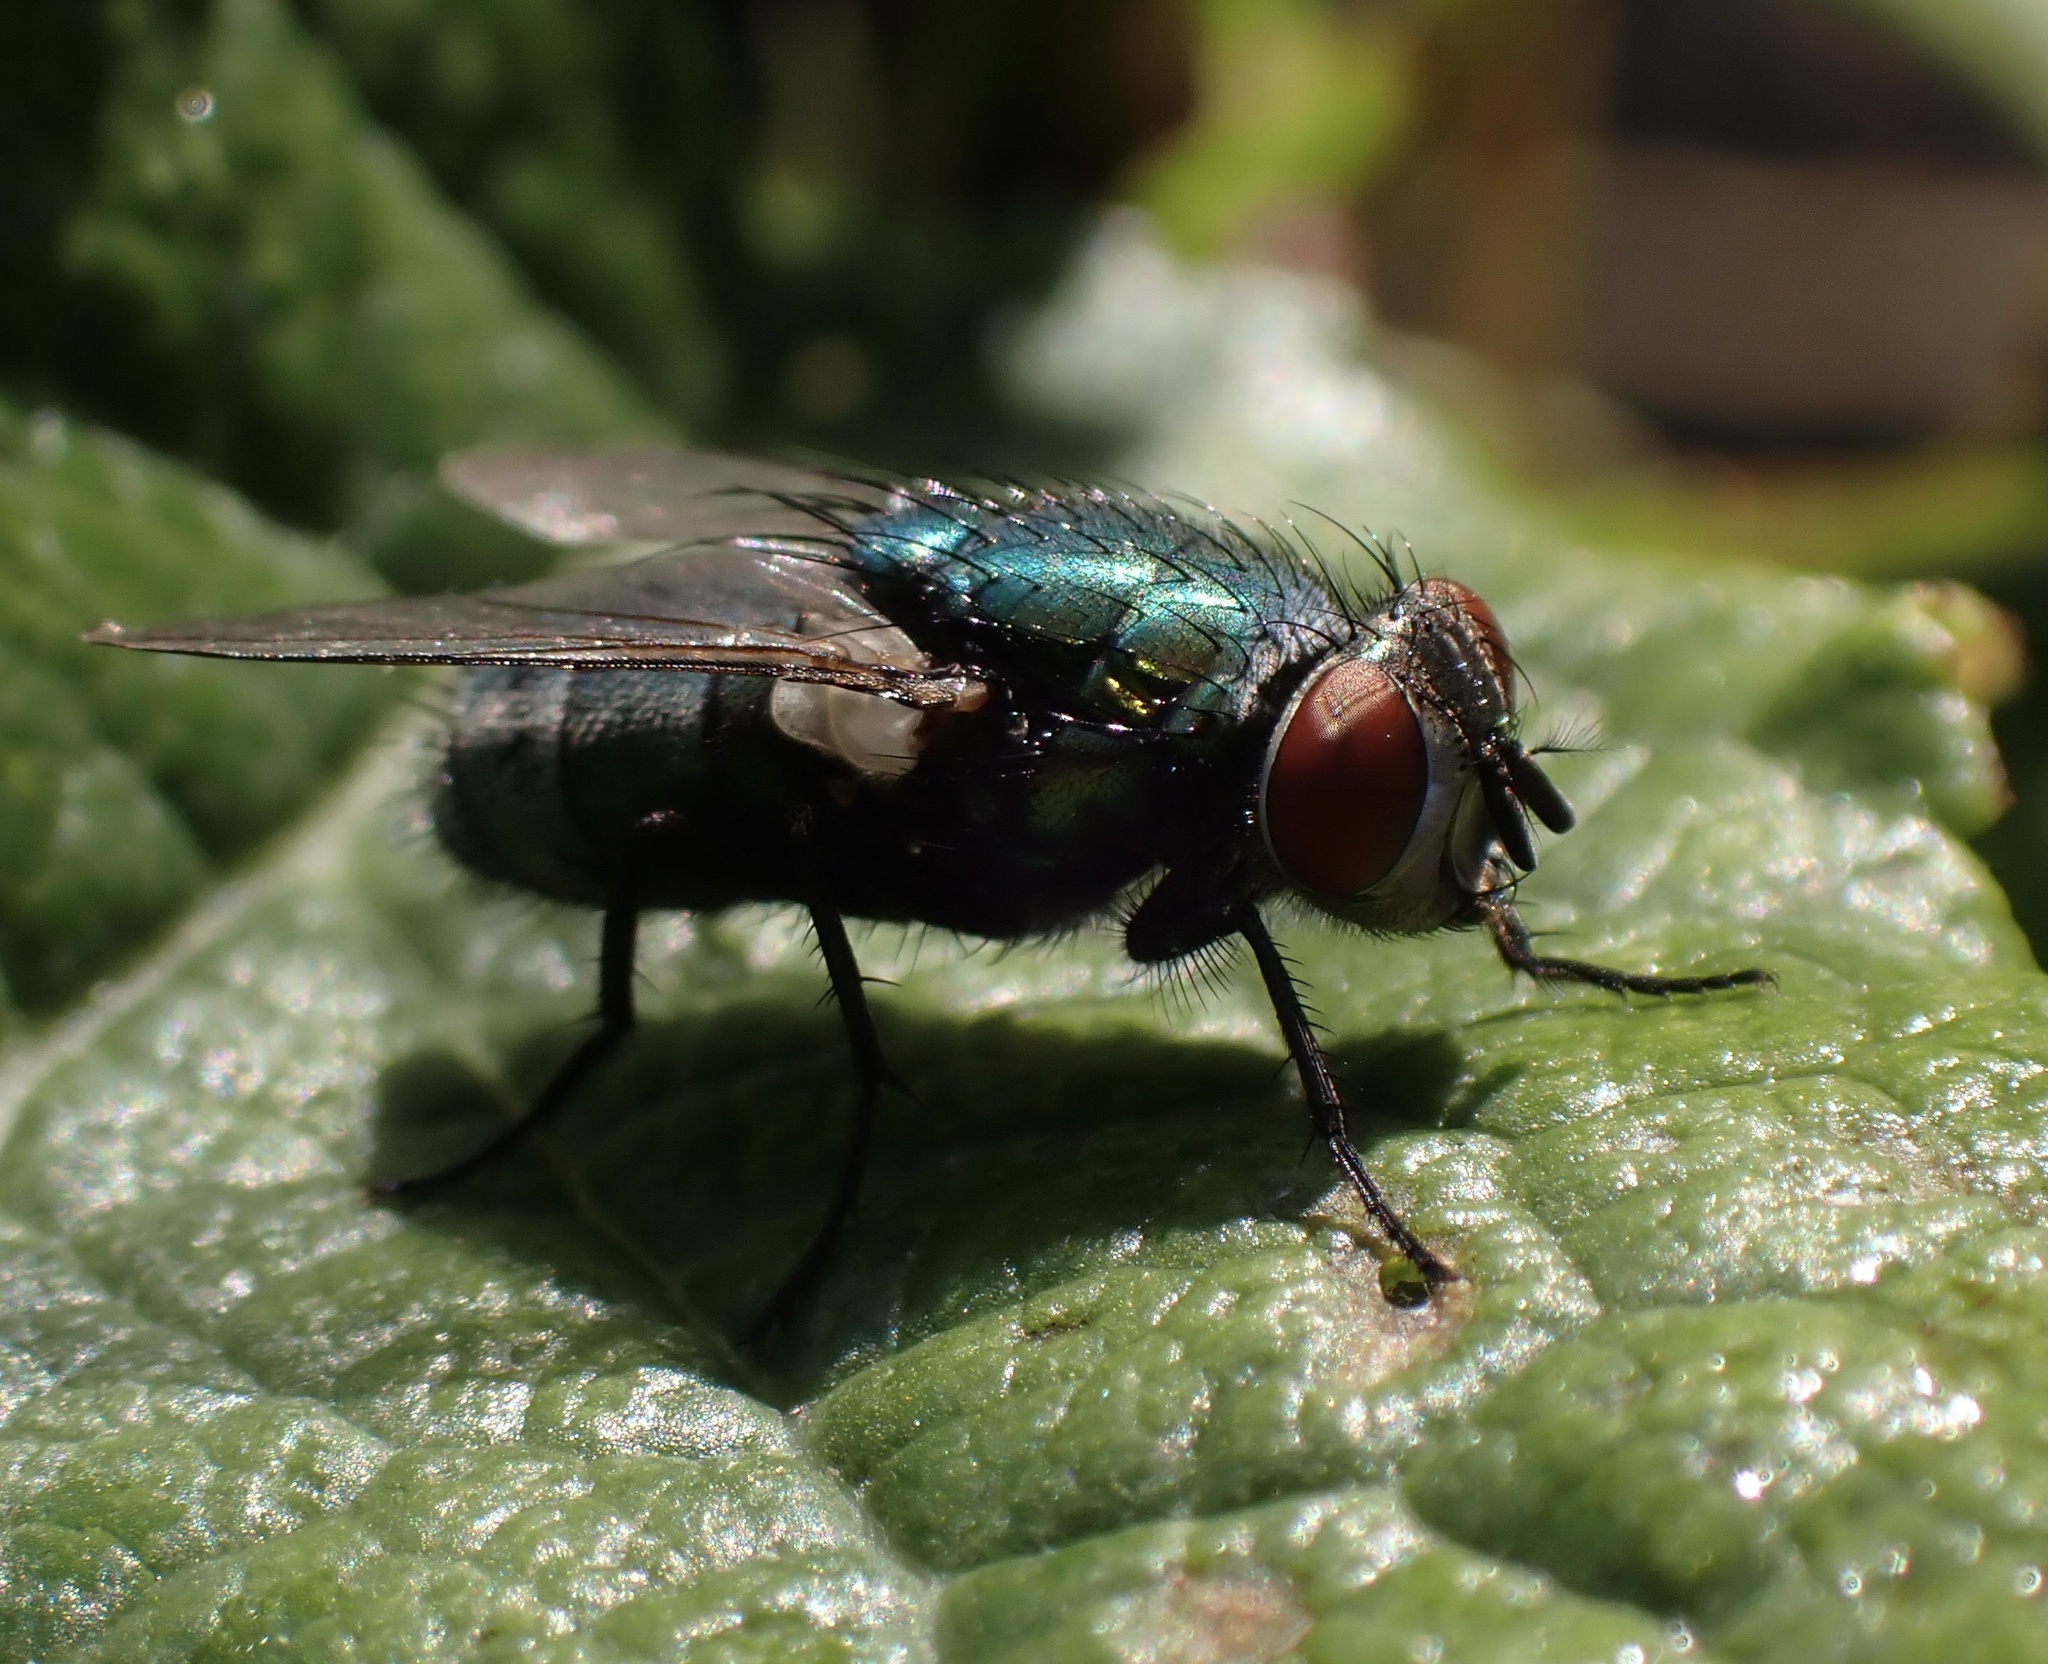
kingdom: Animalia
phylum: Arthropoda
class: Insecta
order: Diptera
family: Calliphoridae
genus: Lucilia
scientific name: Lucilia sericata
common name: Blow fly
